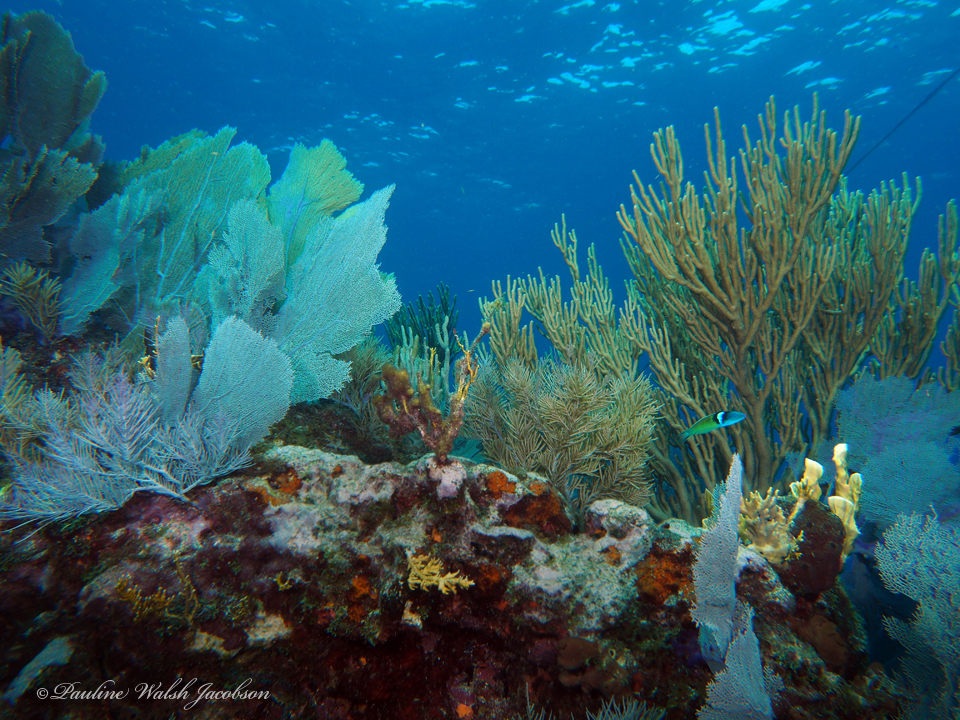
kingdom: Animalia
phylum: Chordata
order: Perciformes
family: Labridae
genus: Thalassoma
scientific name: Thalassoma bifasciatum
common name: Bluehead wrasse
